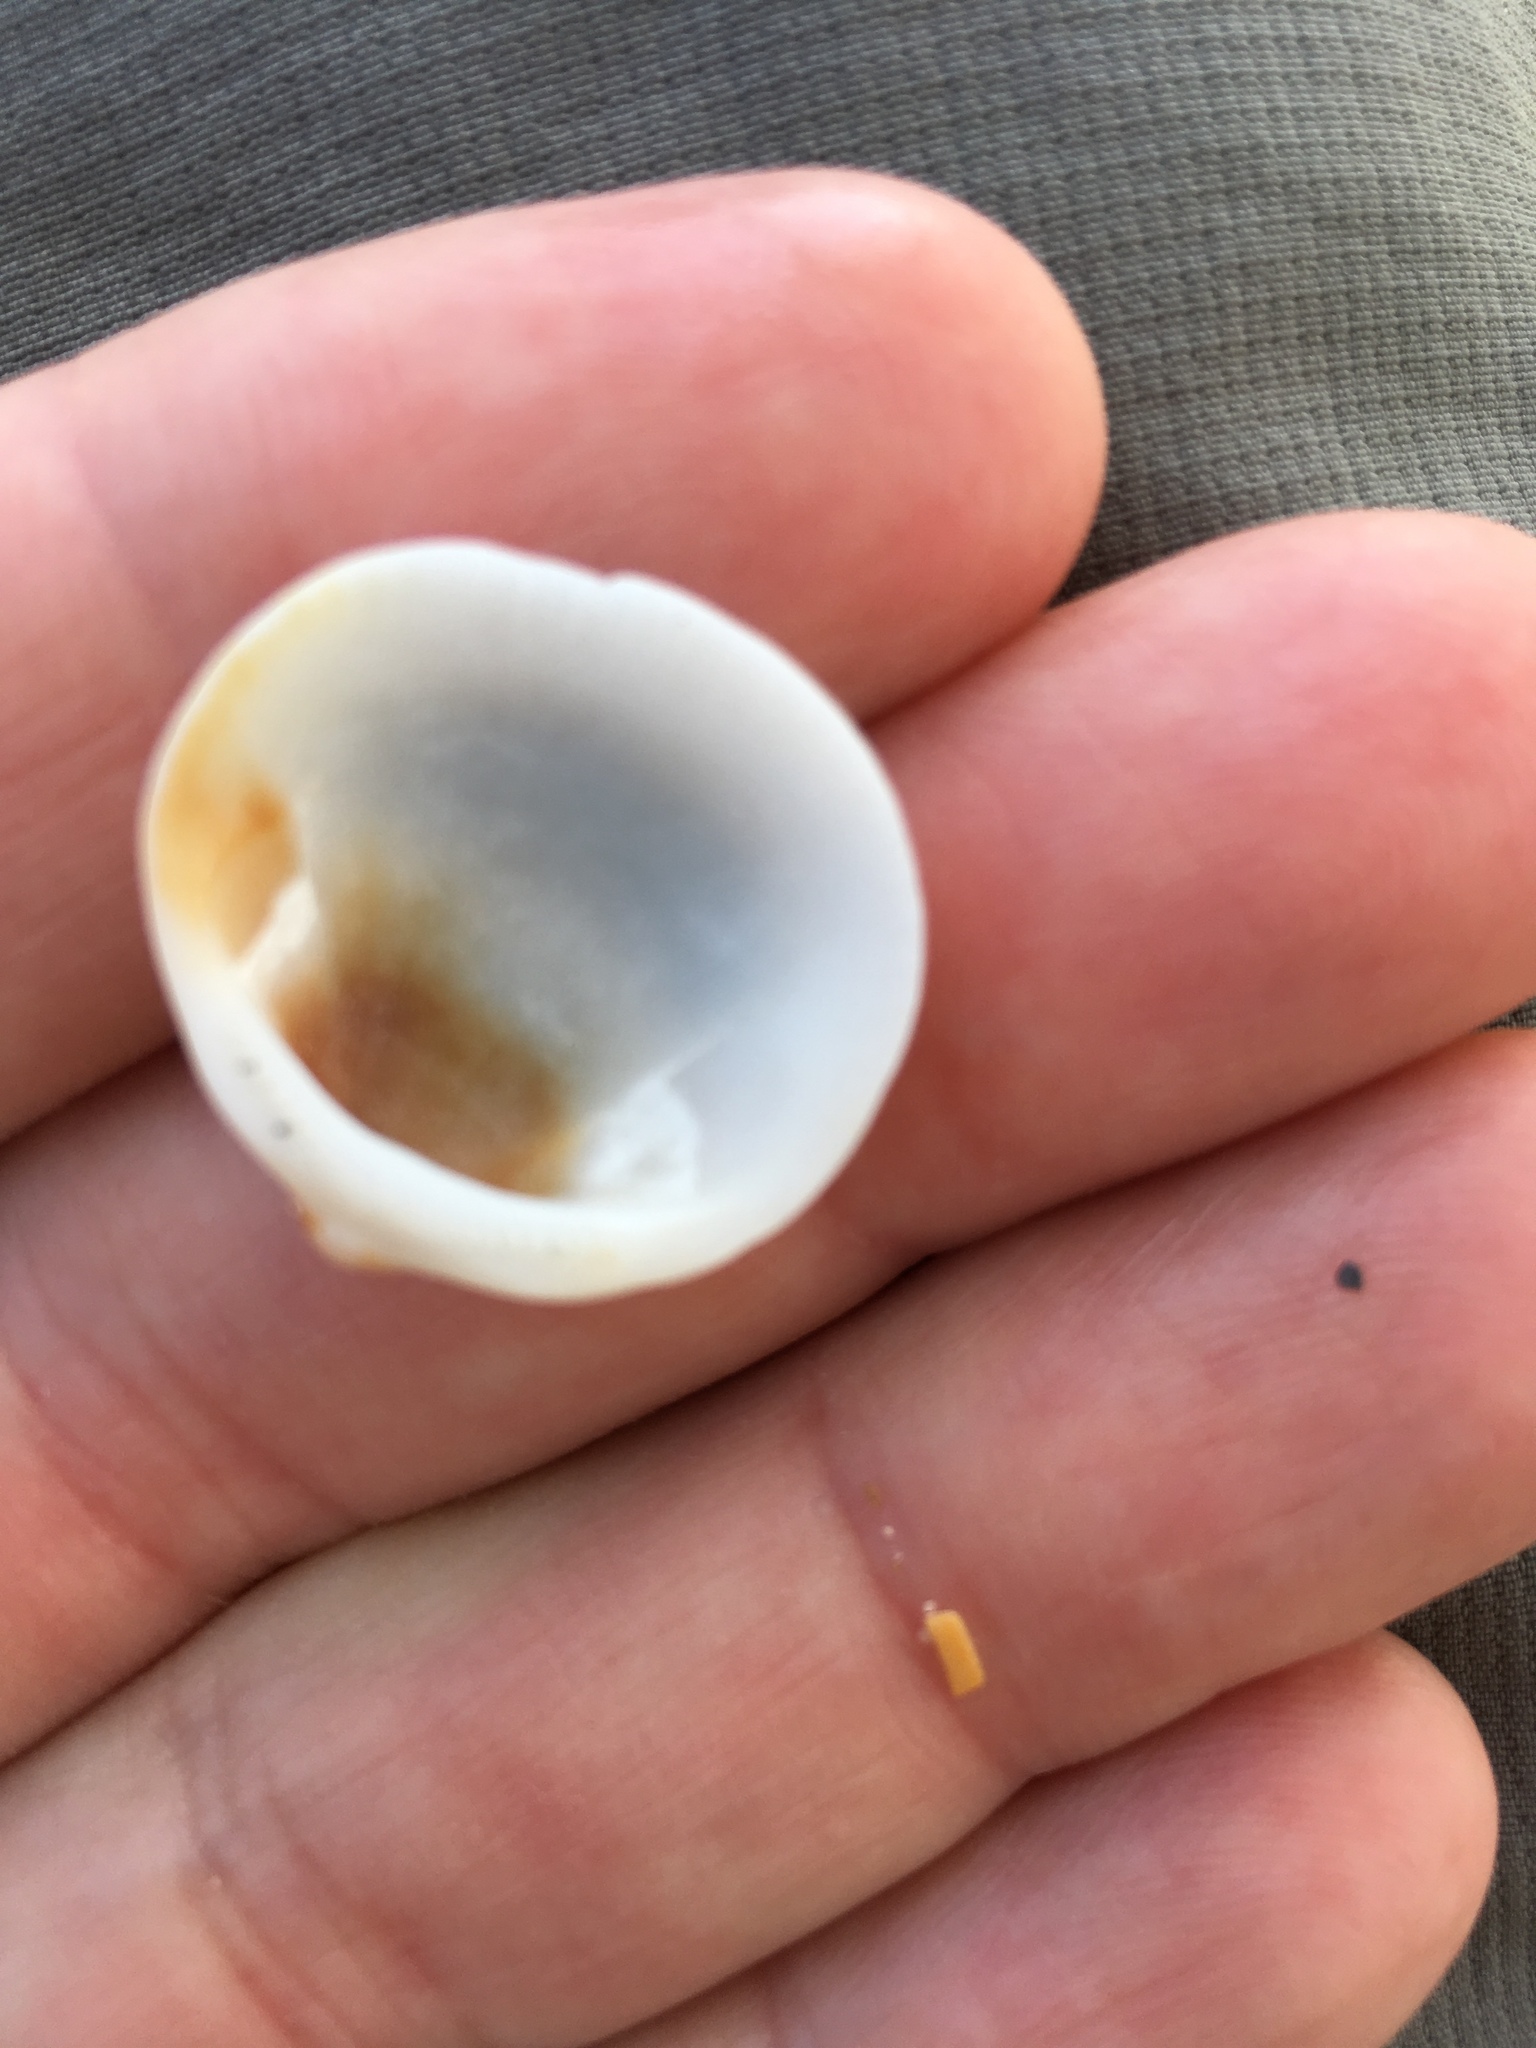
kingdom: Animalia
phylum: Mollusca
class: Bivalvia
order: Arcida
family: Glycymerididae
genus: Glycymeris
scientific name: Glycymeris spectralis
